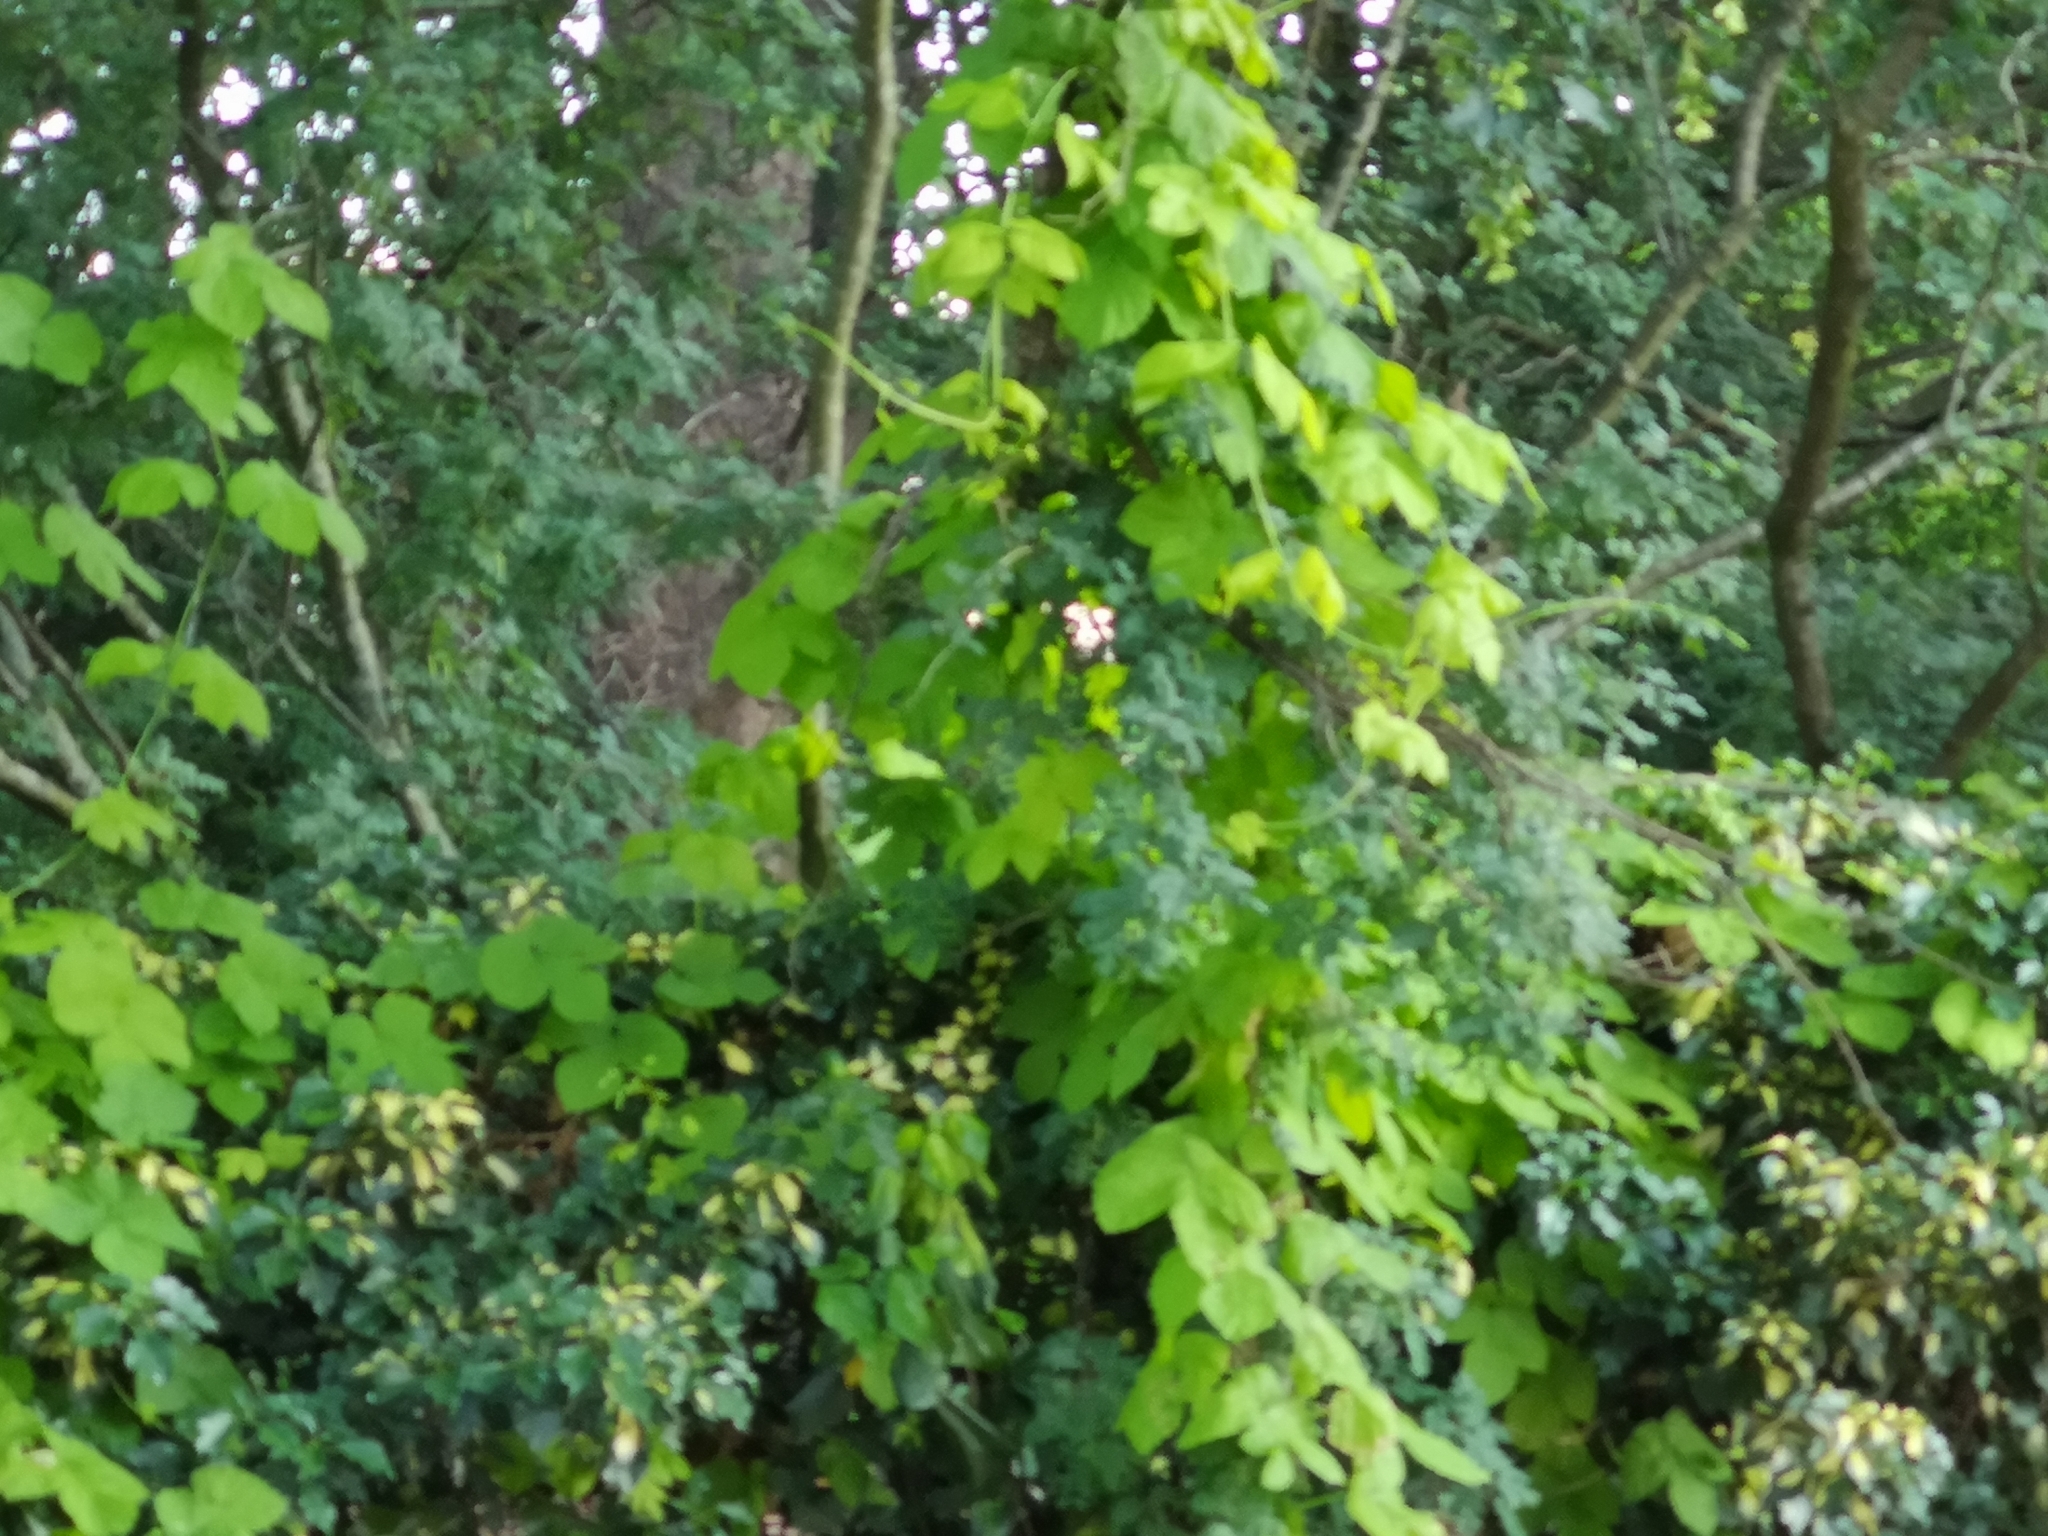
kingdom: Plantae
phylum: Tracheophyta
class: Magnoliopsida
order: Rosales
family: Cannabaceae
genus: Humulus
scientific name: Humulus lupulus
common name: Hop
